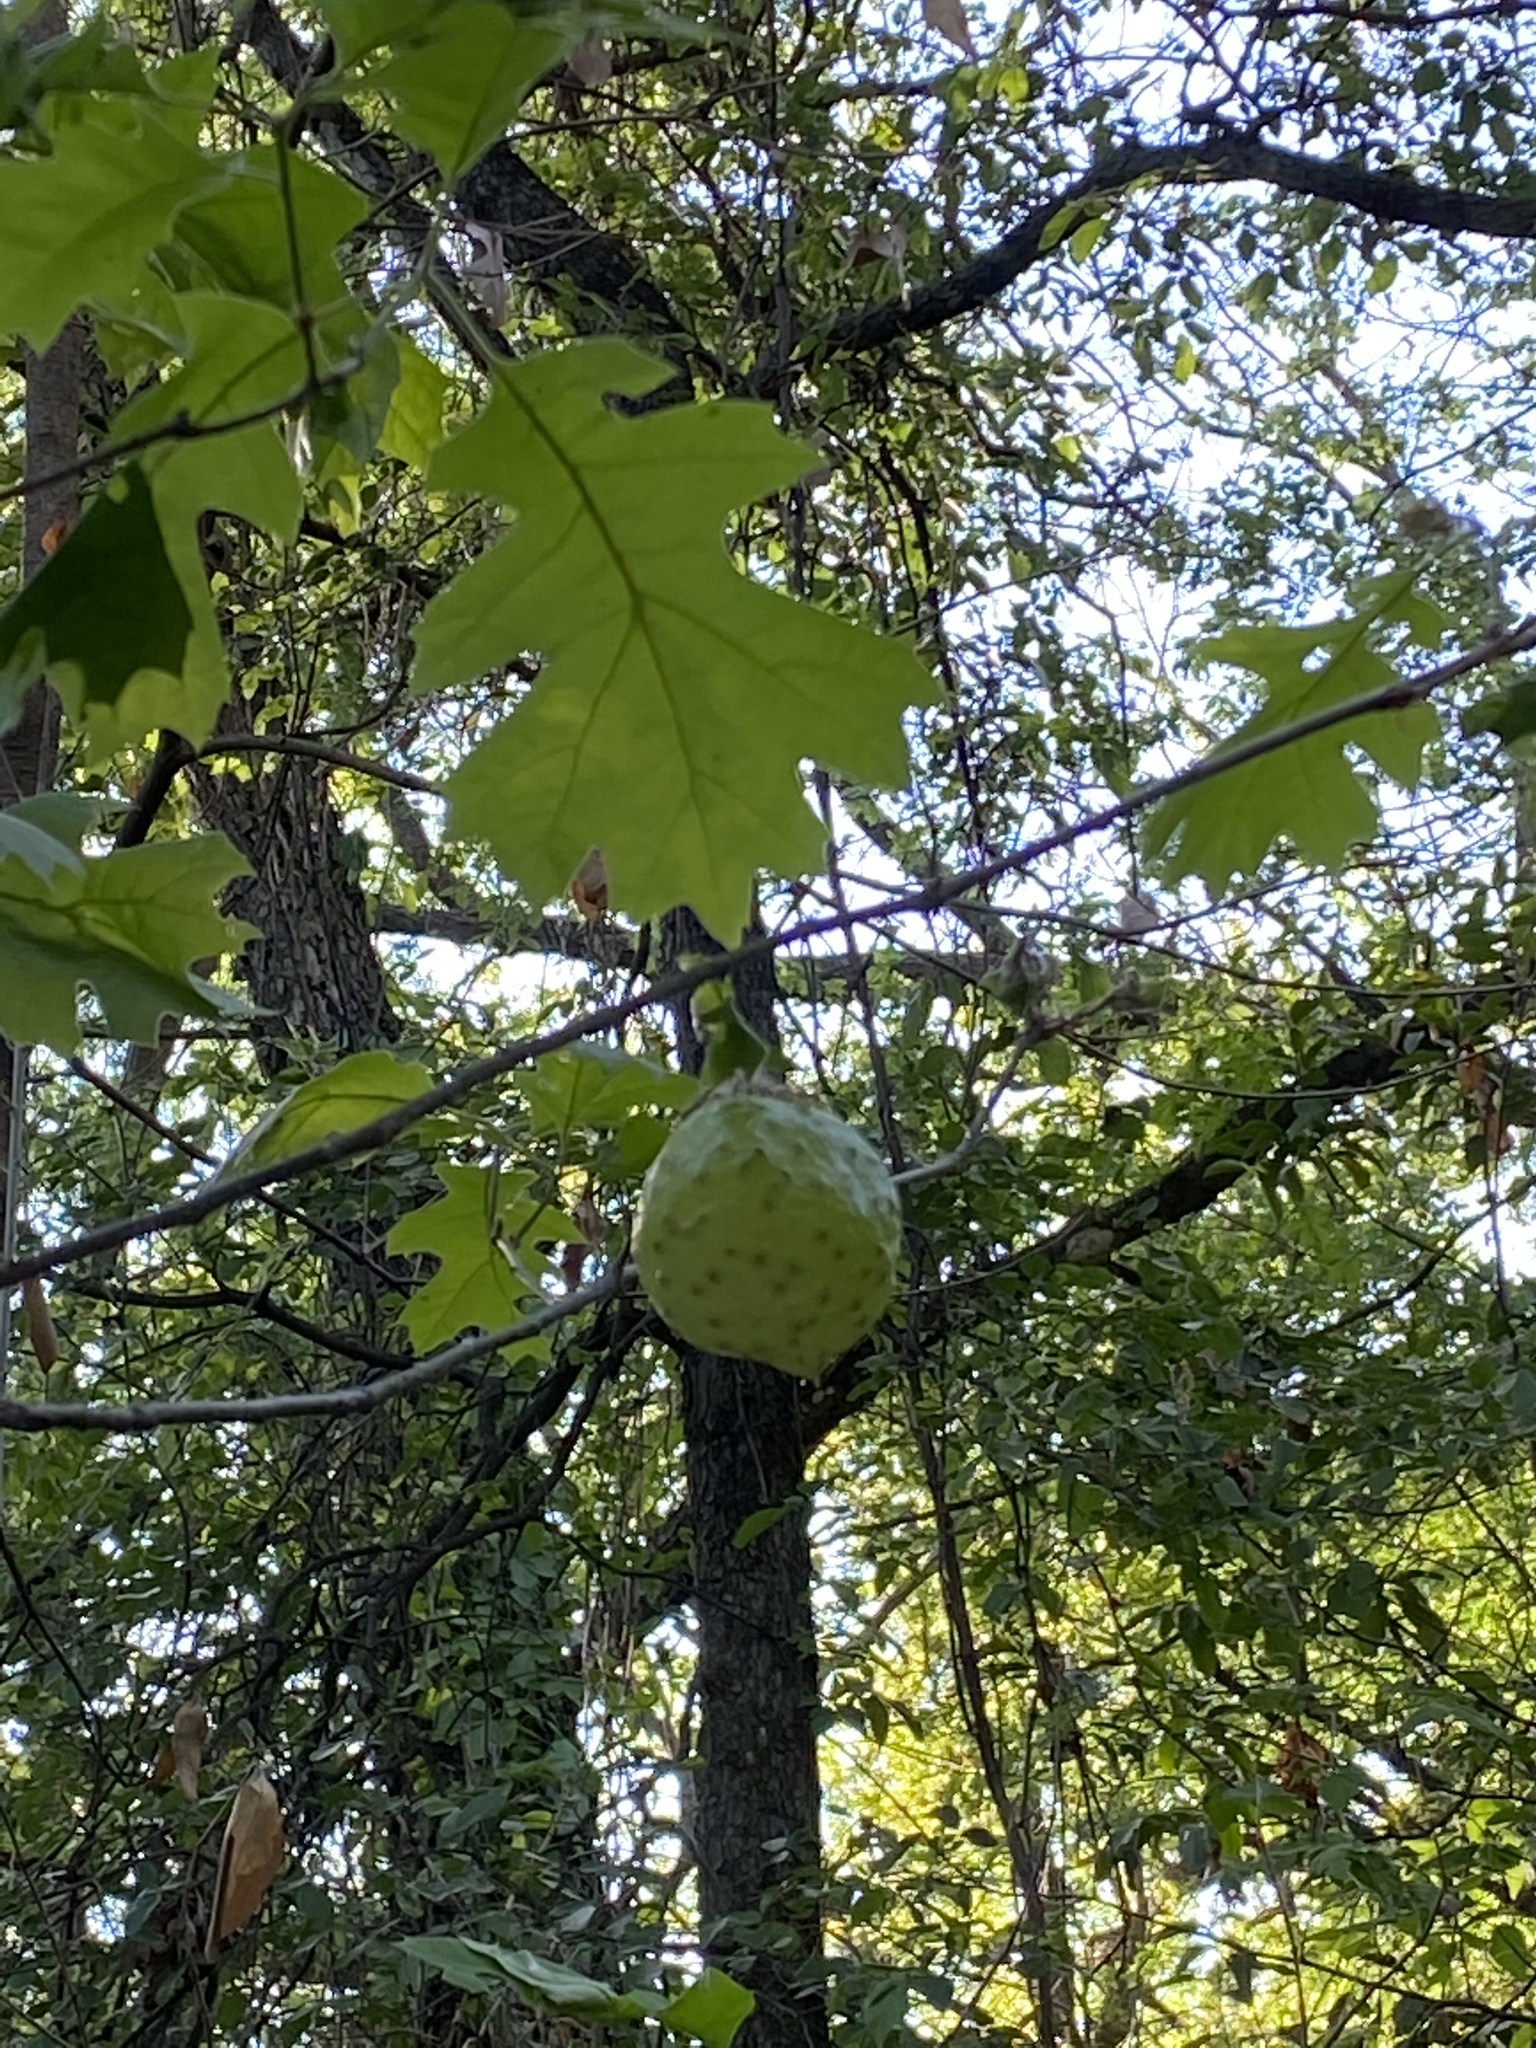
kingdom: Animalia
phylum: Arthropoda
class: Insecta
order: Hymenoptera
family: Cynipidae
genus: Amphibolips
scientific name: Amphibolips
